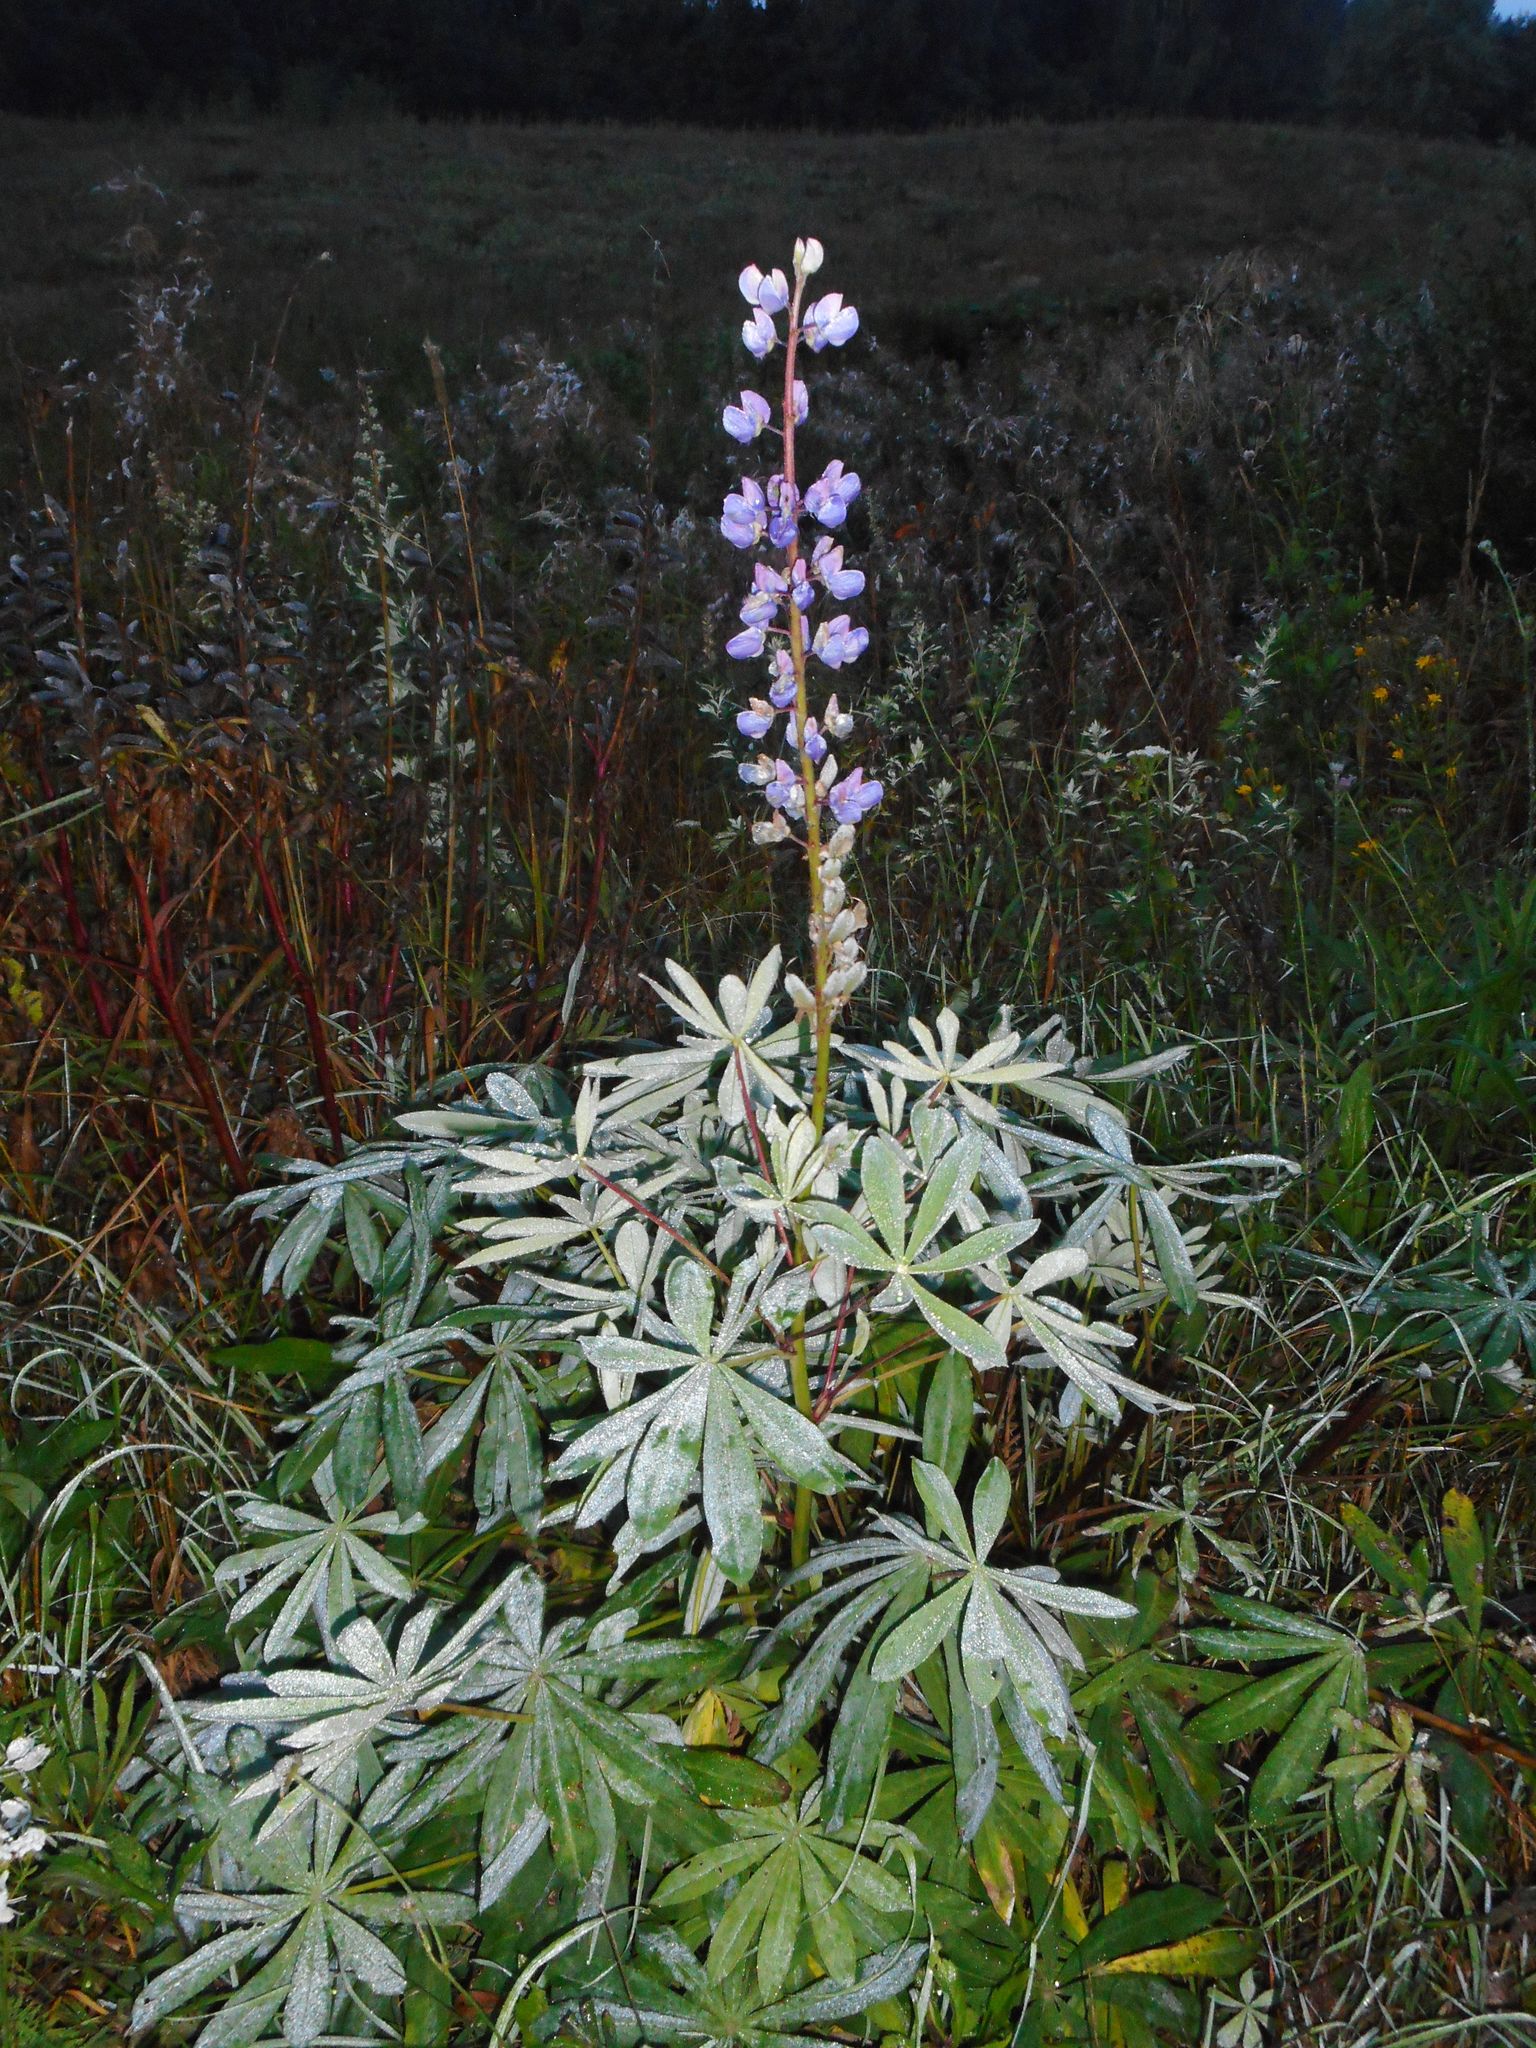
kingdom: Plantae
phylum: Tracheophyta
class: Magnoliopsida
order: Fabales
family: Fabaceae
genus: Lupinus
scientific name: Lupinus polyphyllus
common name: Garden lupin
